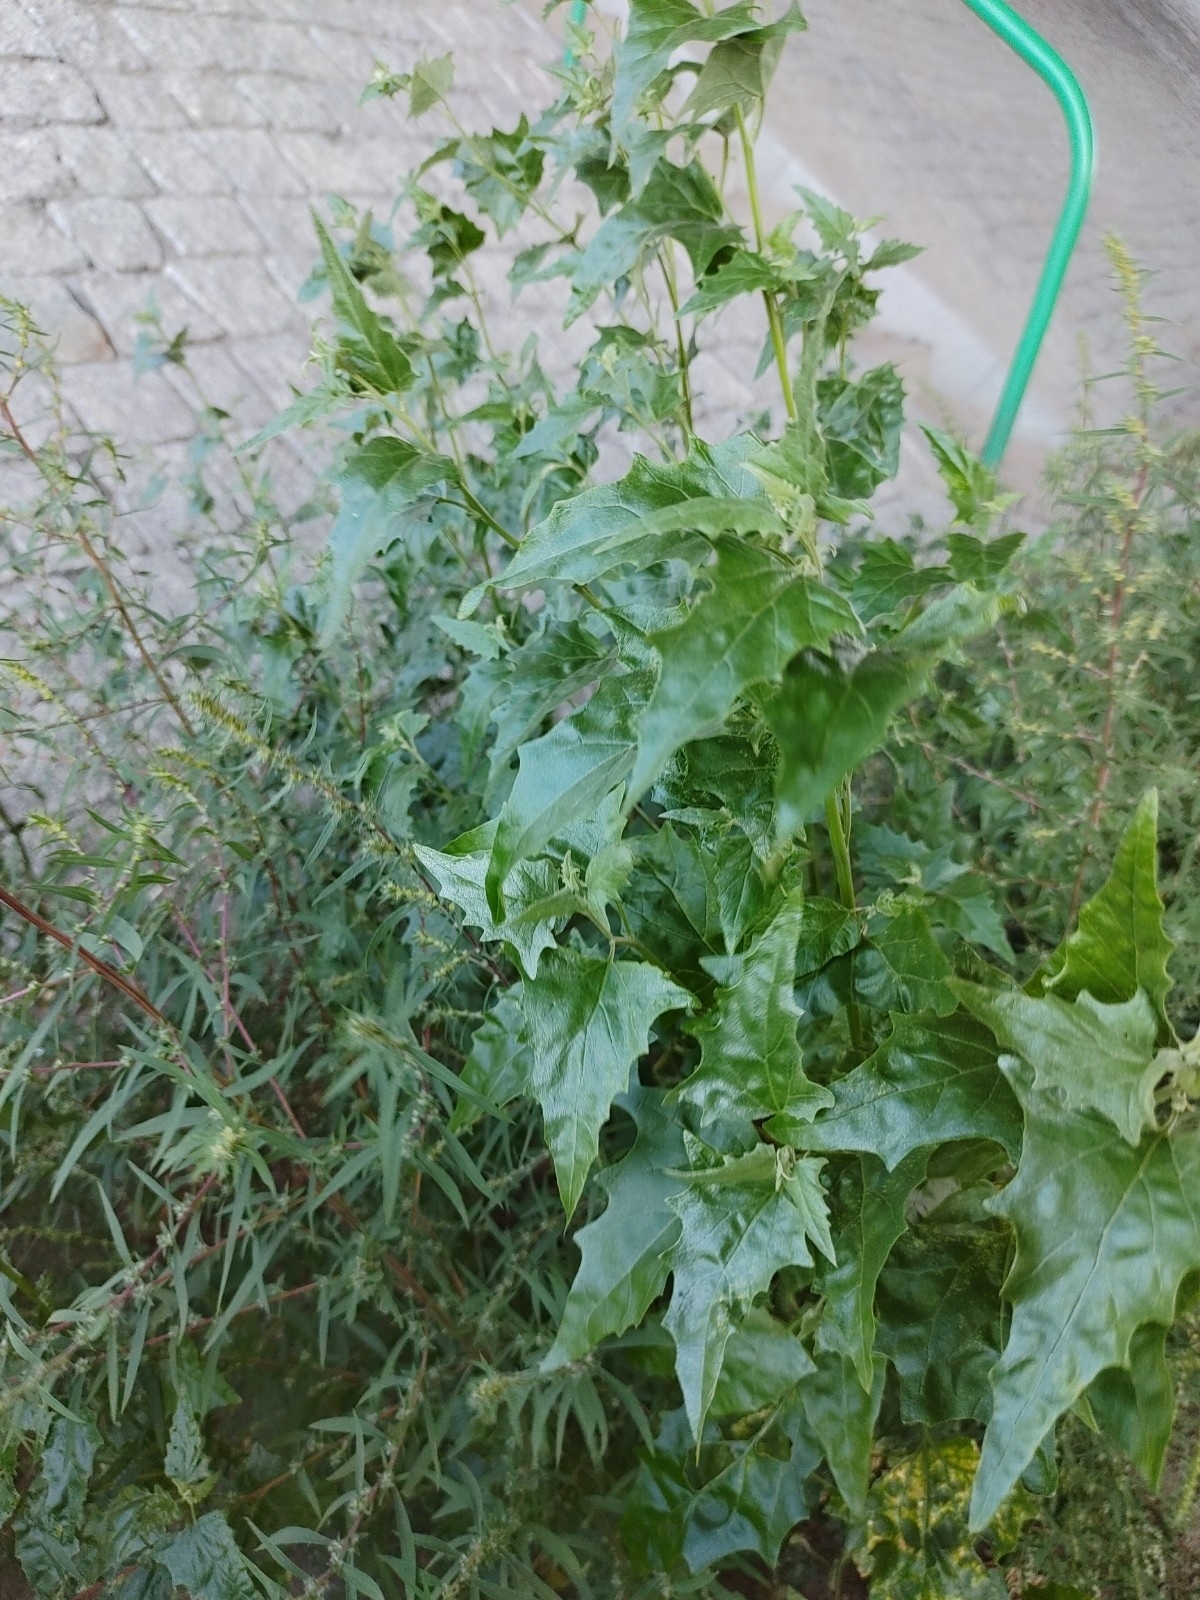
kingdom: Plantae
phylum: Tracheophyta
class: Magnoliopsida
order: Caryophyllales
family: Amaranthaceae
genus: Atriplex
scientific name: Atriplex sagittata
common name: Purple orache
